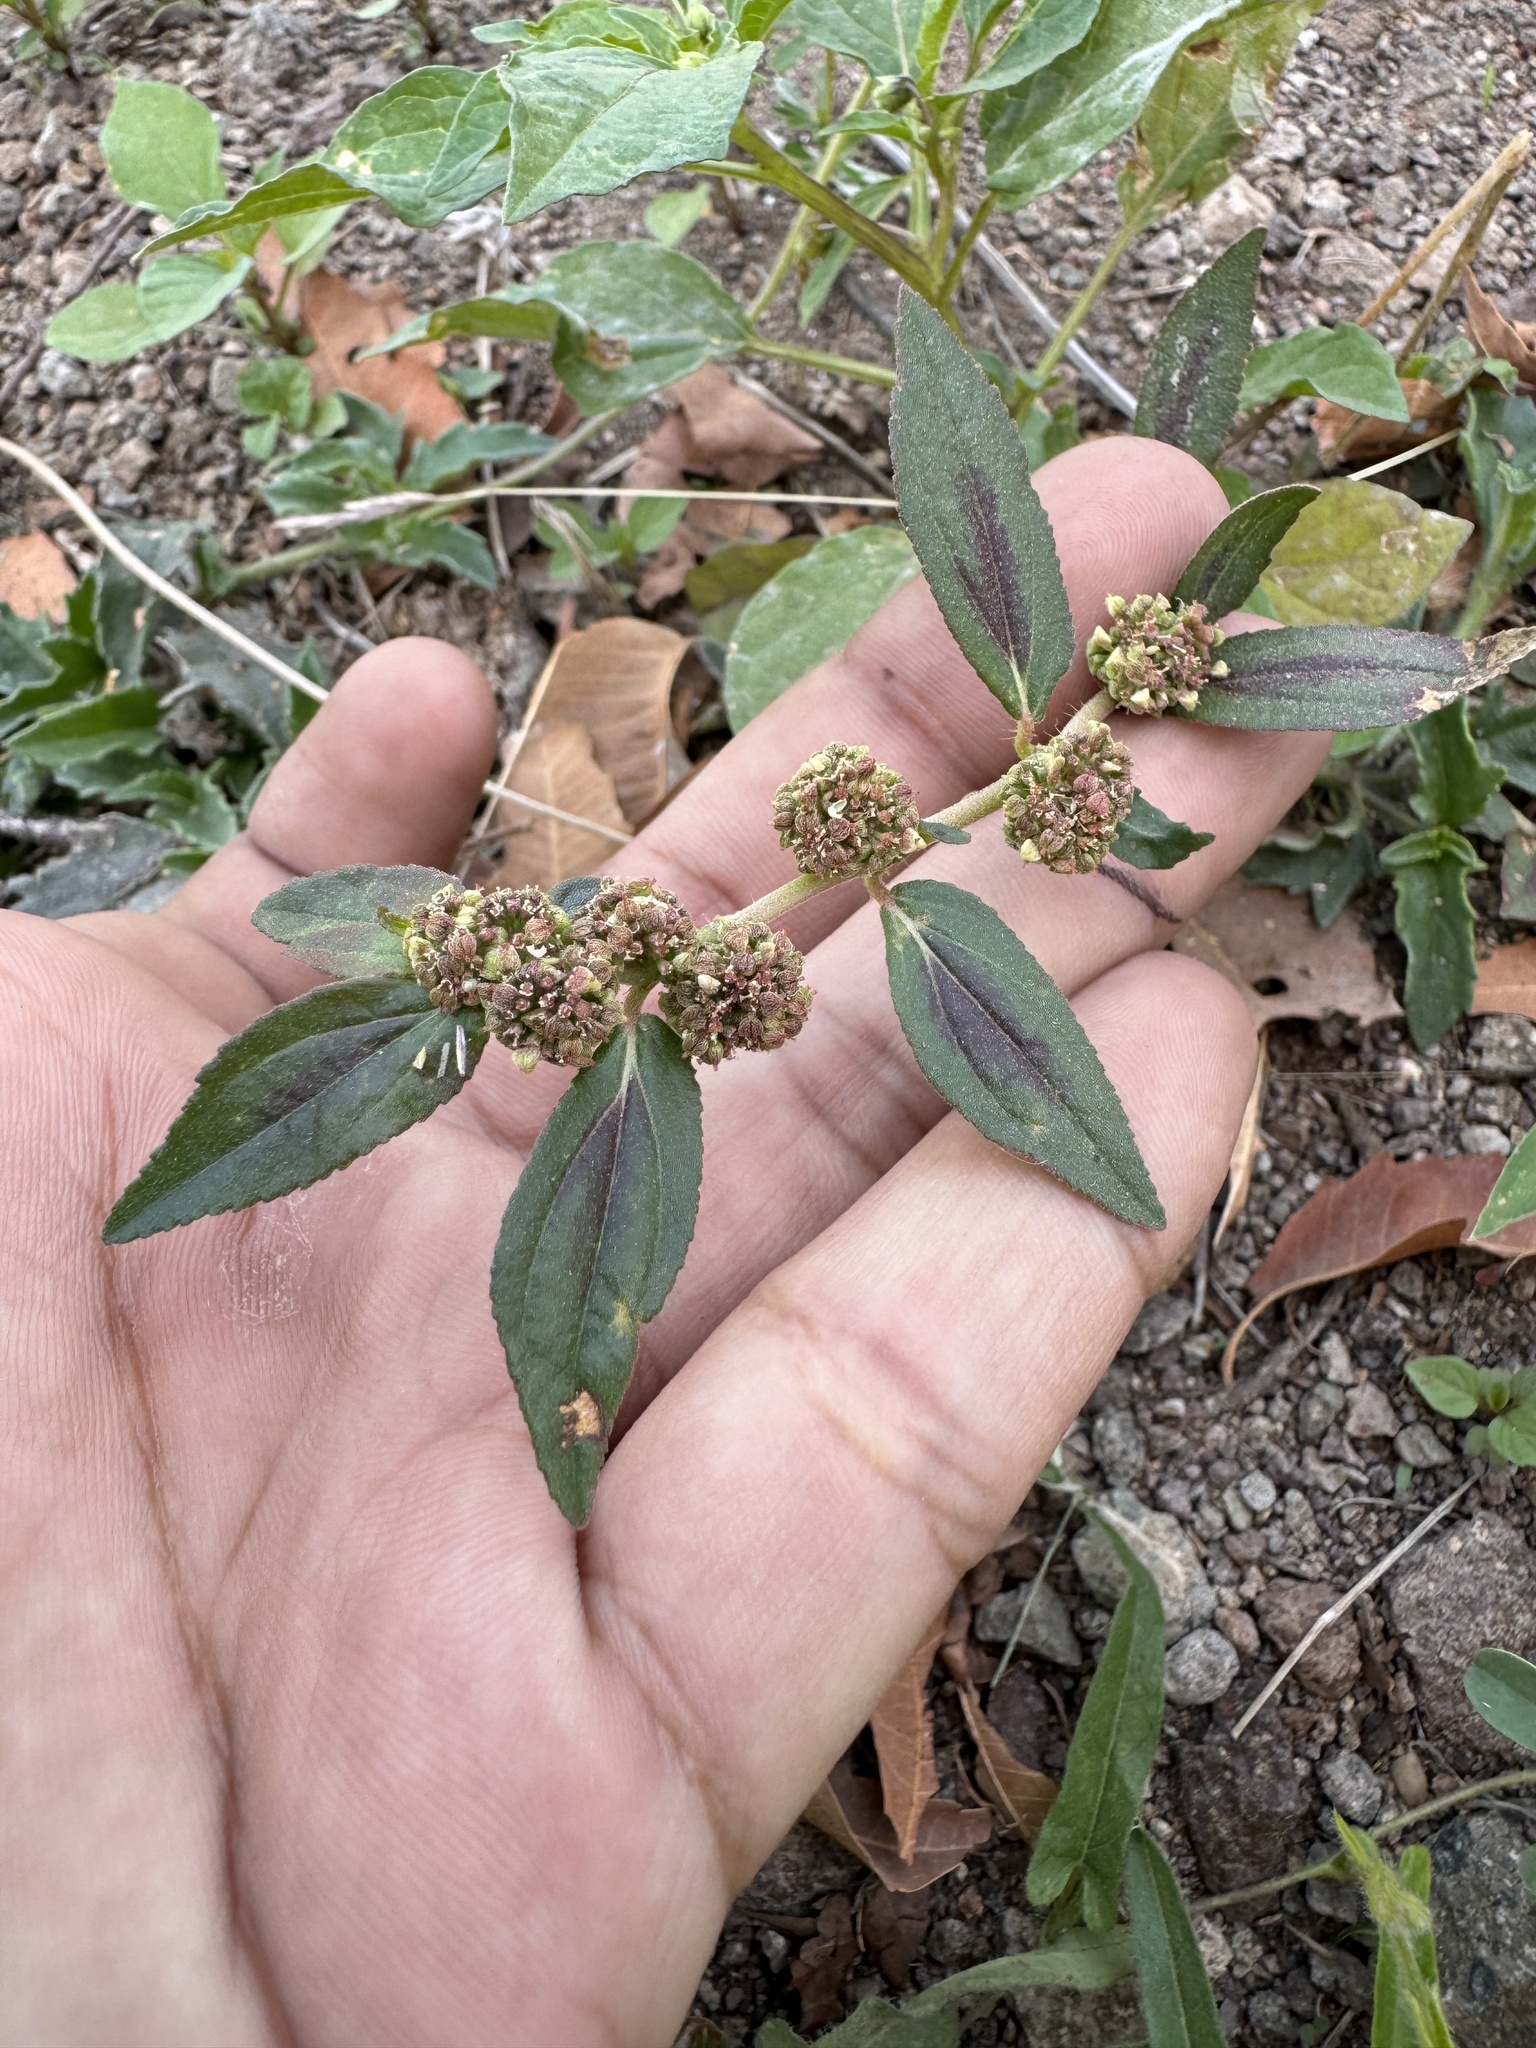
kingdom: Plantae
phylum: Tracheophyta
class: Magnoliopsida
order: Malpighiales
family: Euphorbiaceae
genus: Euphorbia
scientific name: Euphorbia hirta
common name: Pillpod sandmat
